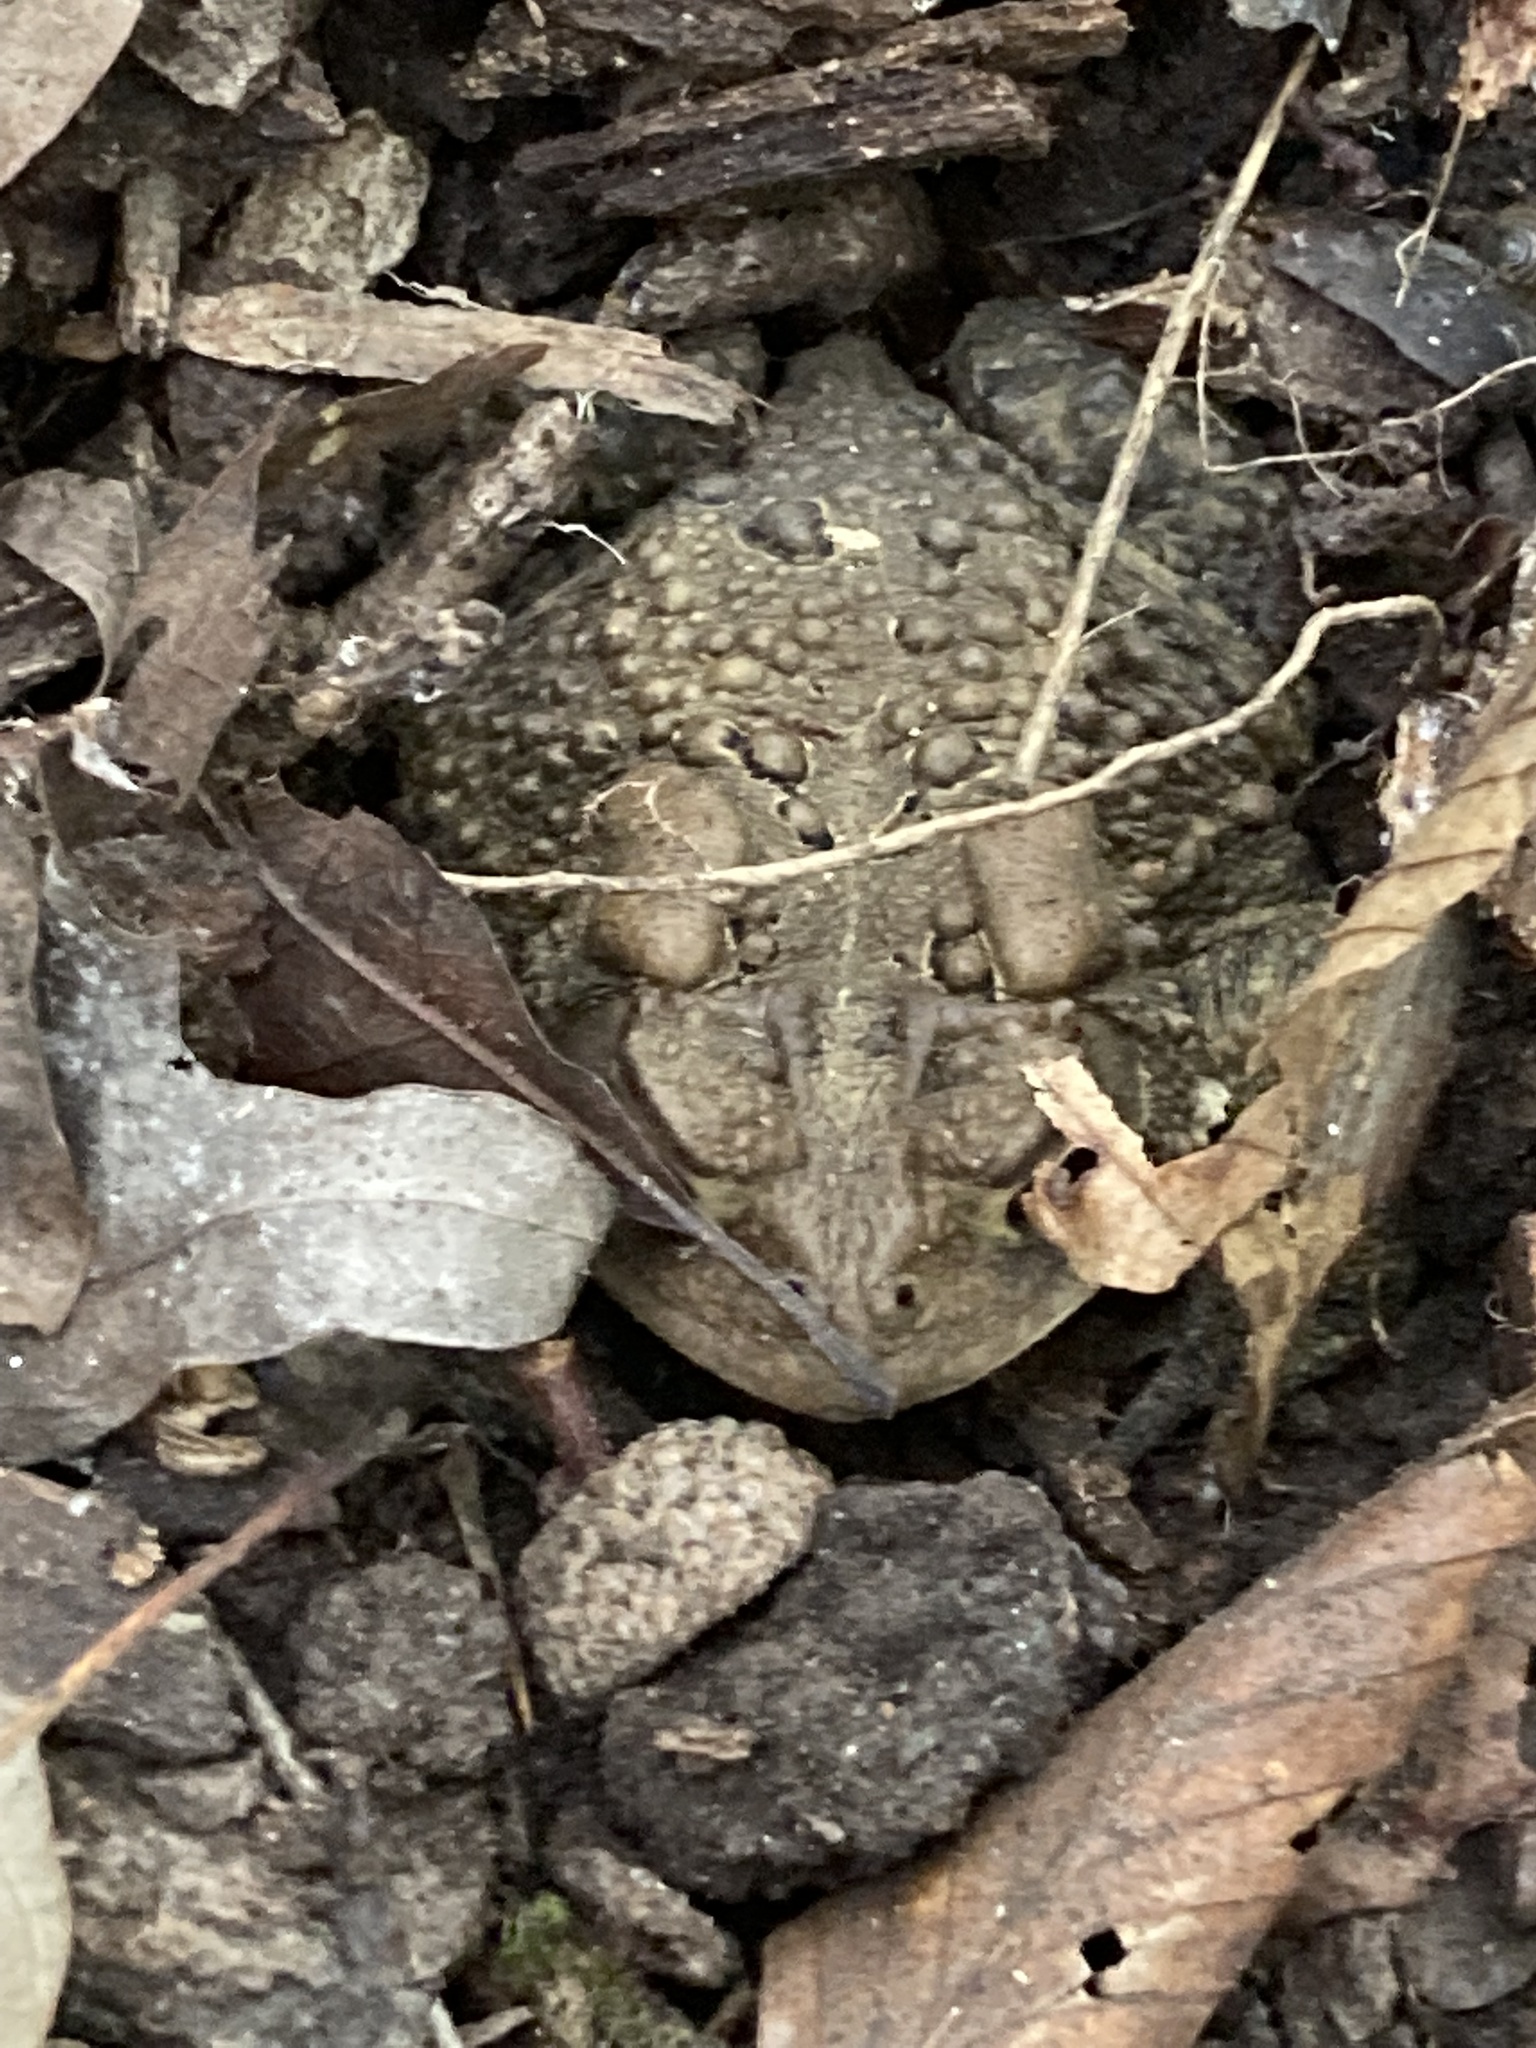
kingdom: Animalia
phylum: Chordata
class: Amphibia
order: Anura
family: Bufonidae
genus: Anaxyrus
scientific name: Anaxyrus americanus
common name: American toad
